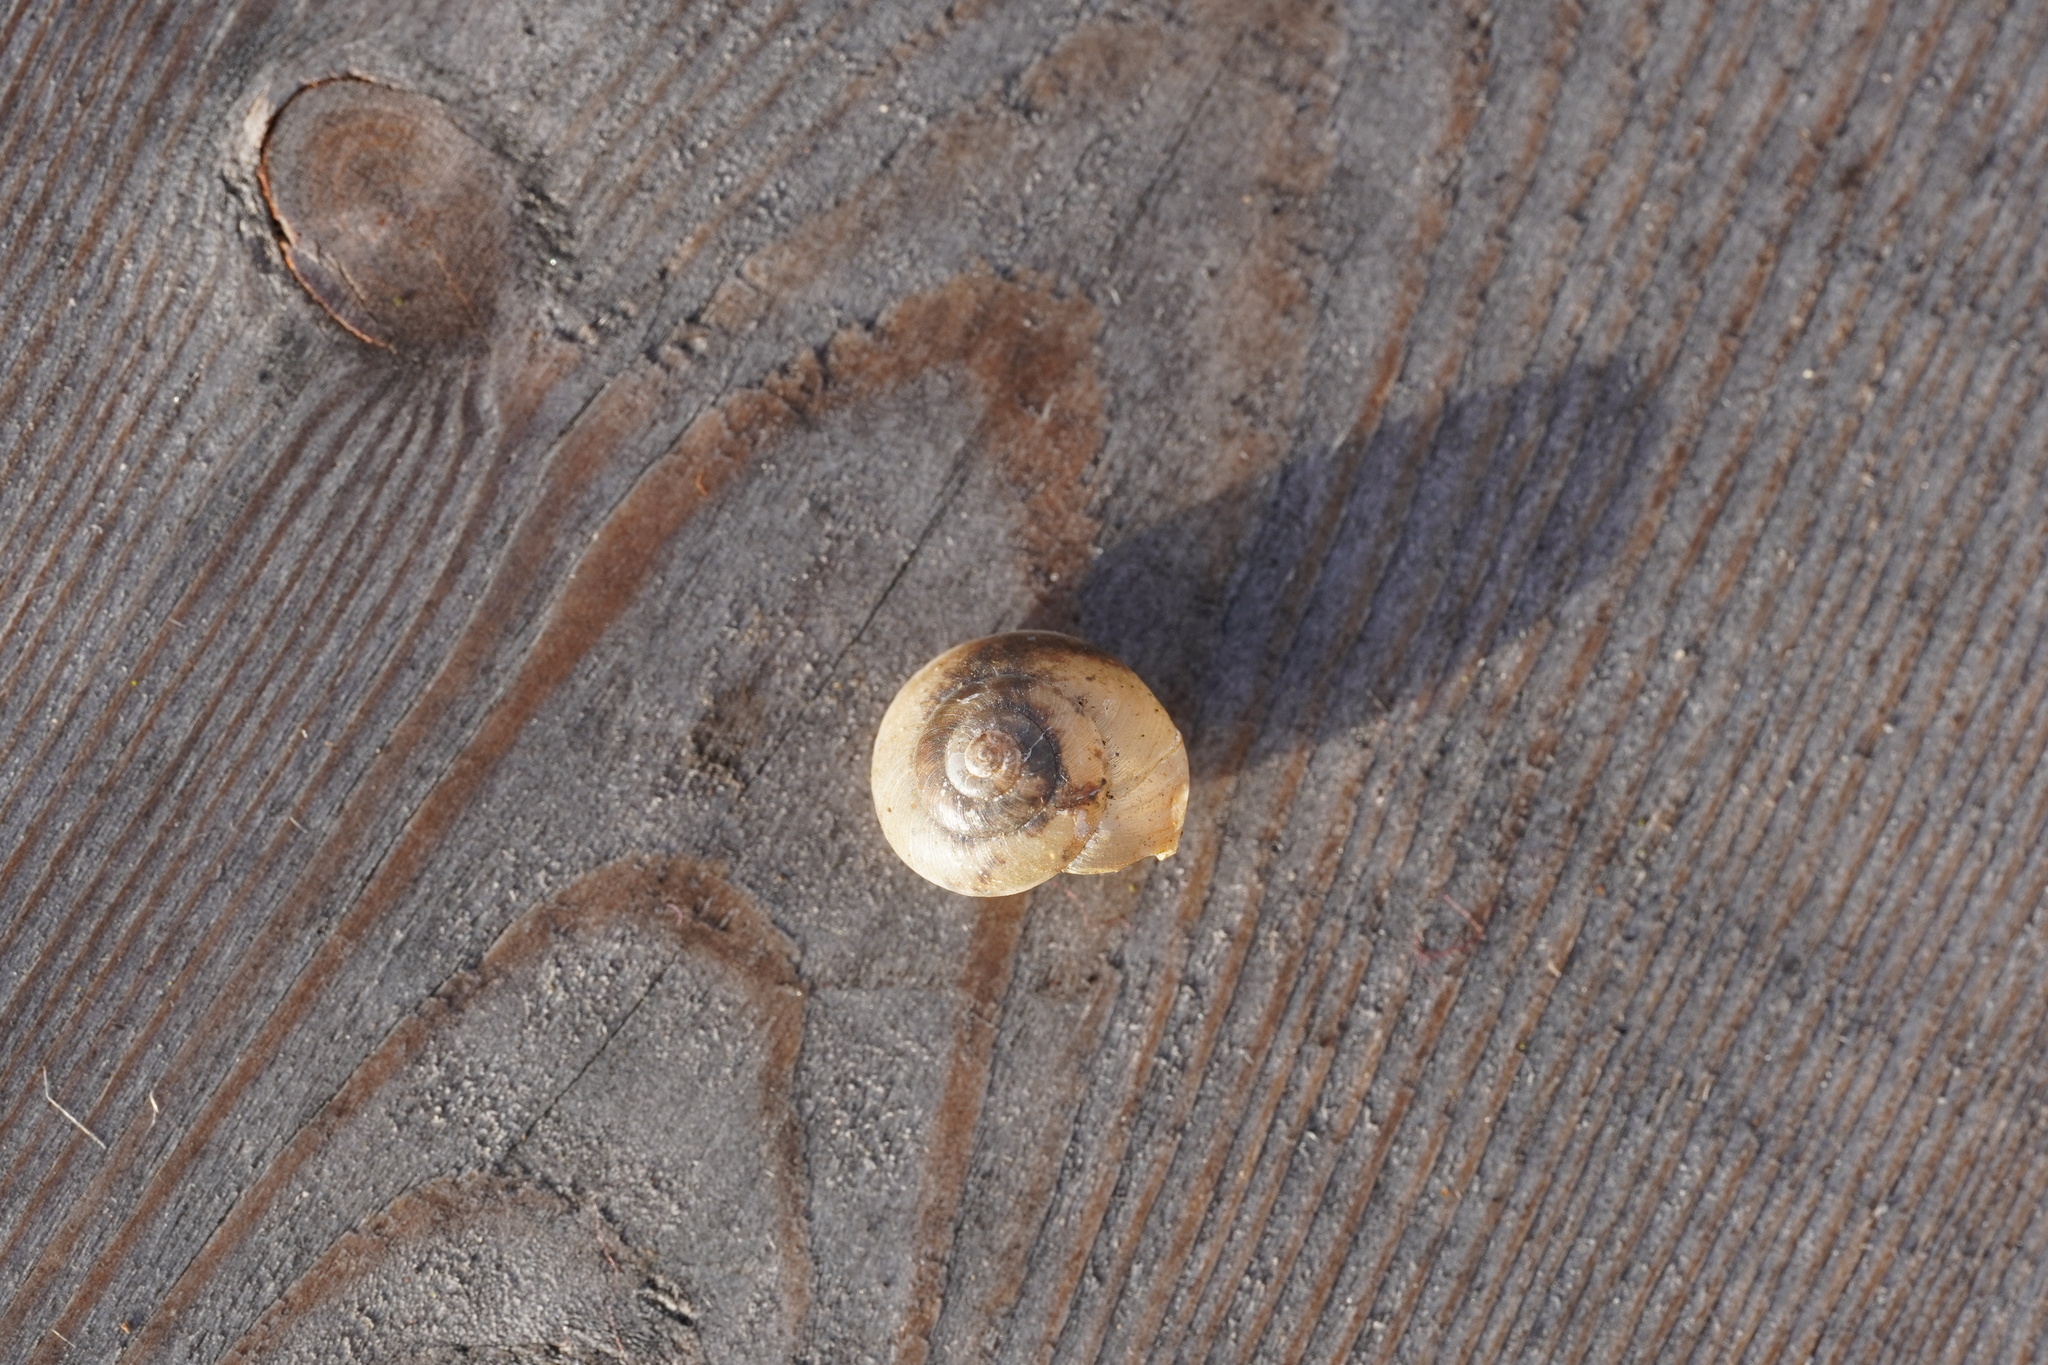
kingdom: Animalia
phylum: Mollusca
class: Gastropoda
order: Stylommatophora
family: Hygromiidae
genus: Hygromia
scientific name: Hygromia cinctella
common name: Girdled snail
